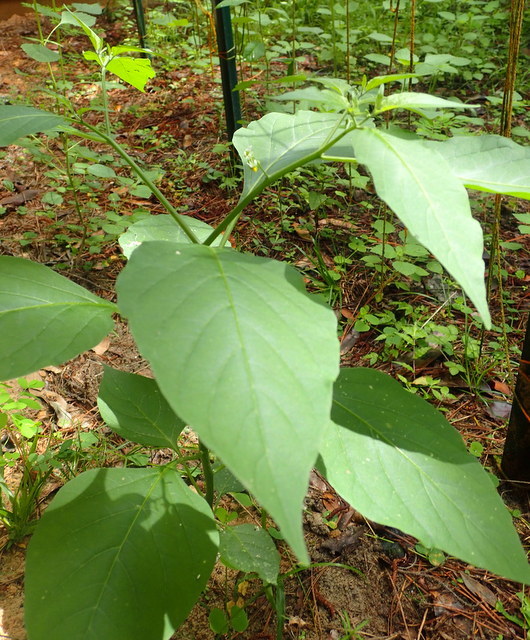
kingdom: Plantae
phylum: Tracheophyta
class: Magnoliopsida
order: Solanales
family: Solanaceae
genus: Solanum
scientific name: Solanum americanum
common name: American black nightshade
